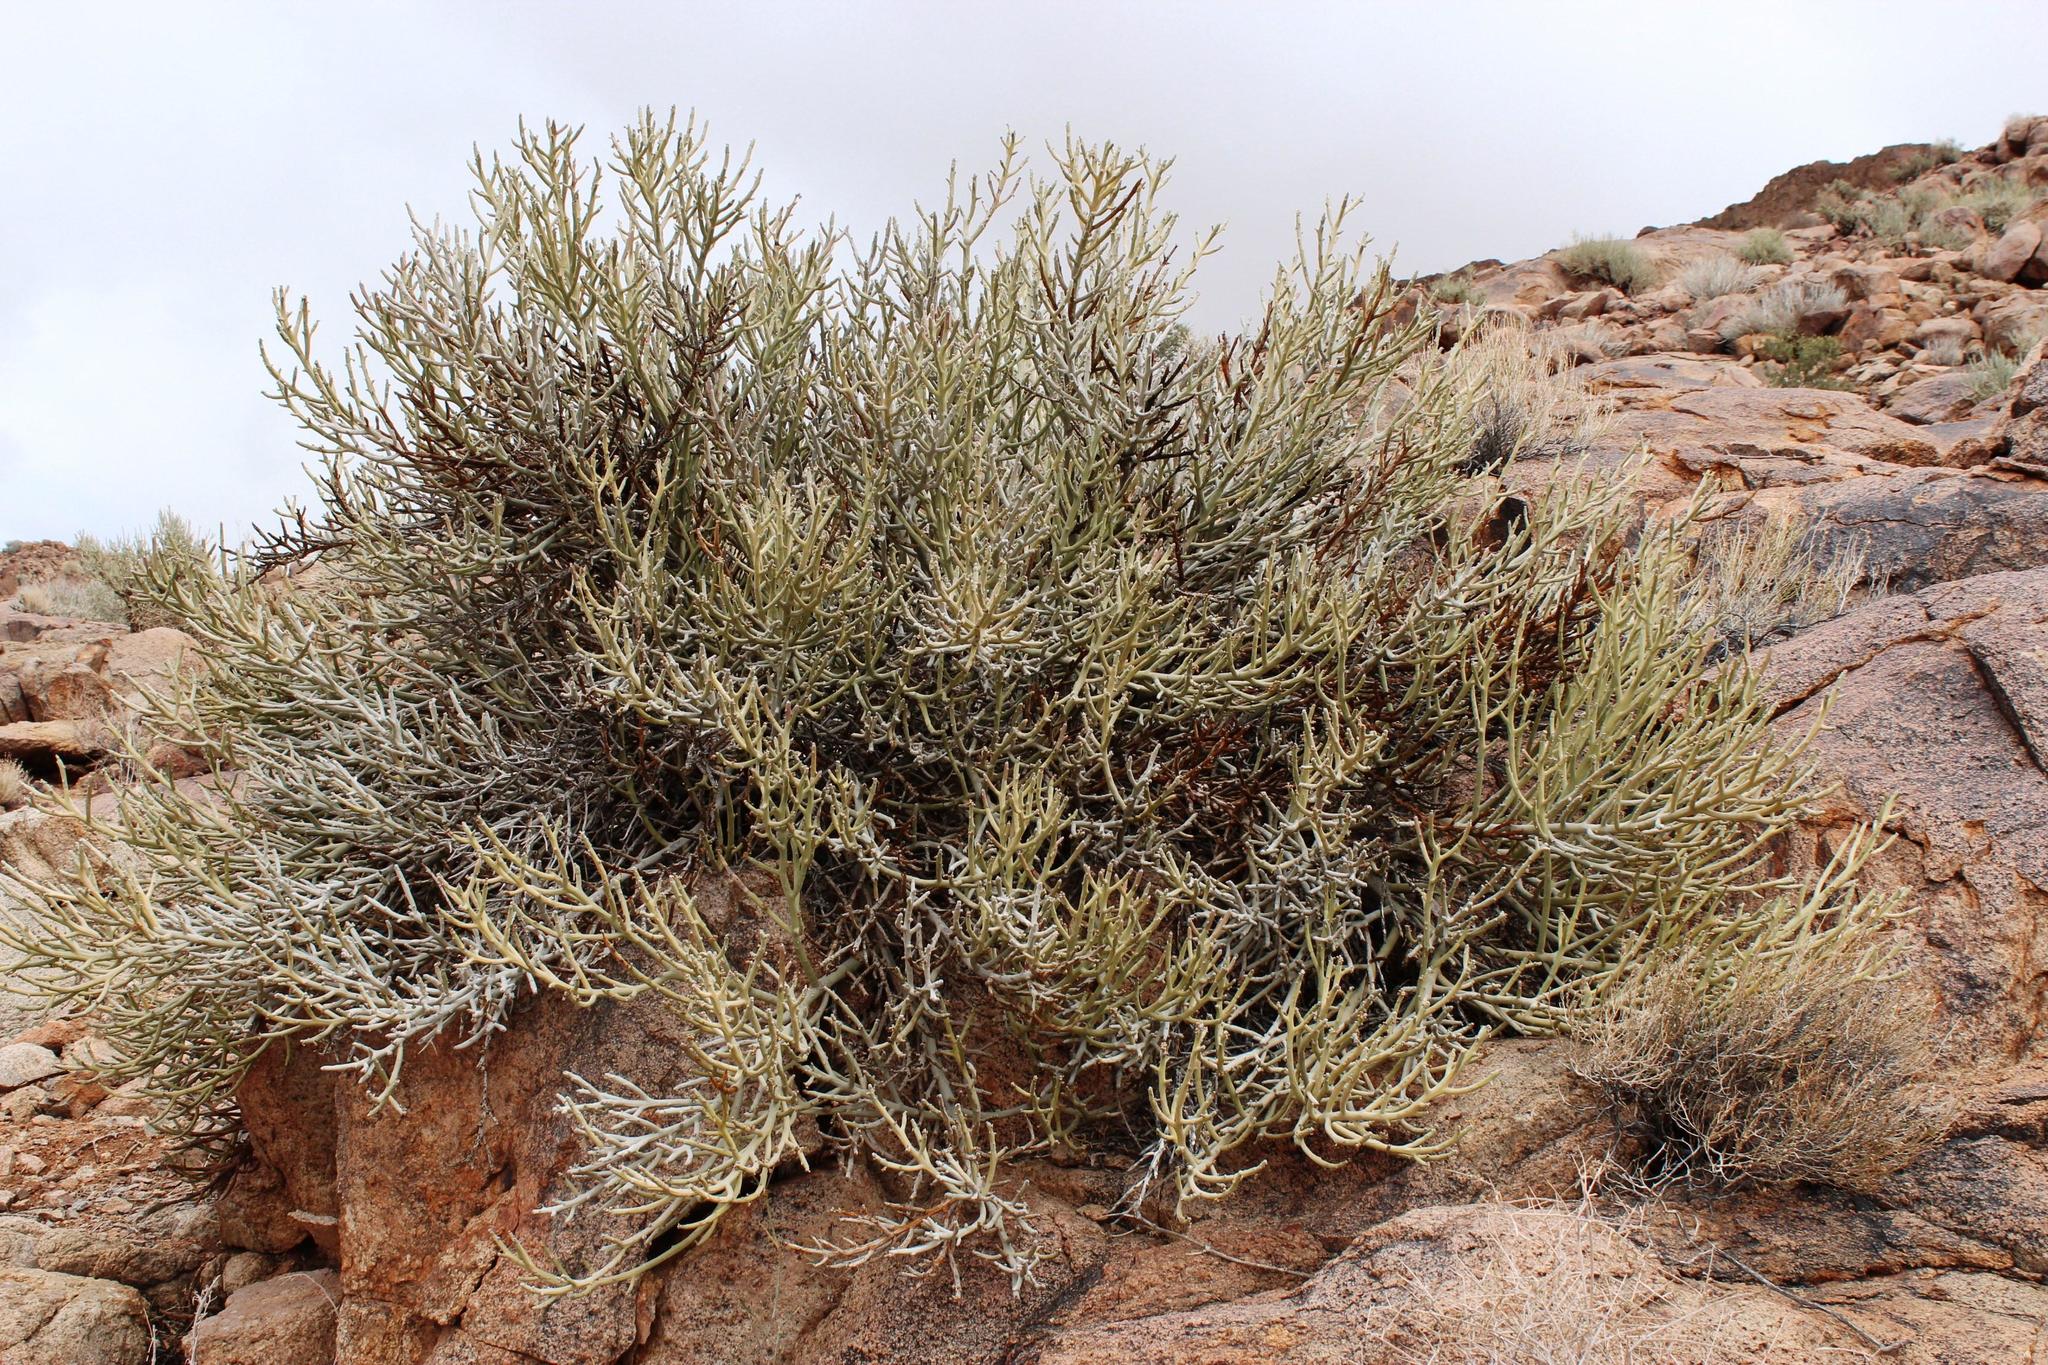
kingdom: Plantae
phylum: Tracheophyta
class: Magnoliopsida
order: Malpighiales
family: Euphorbiaceae
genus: Euphorbia
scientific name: Euphorbia gummifera
